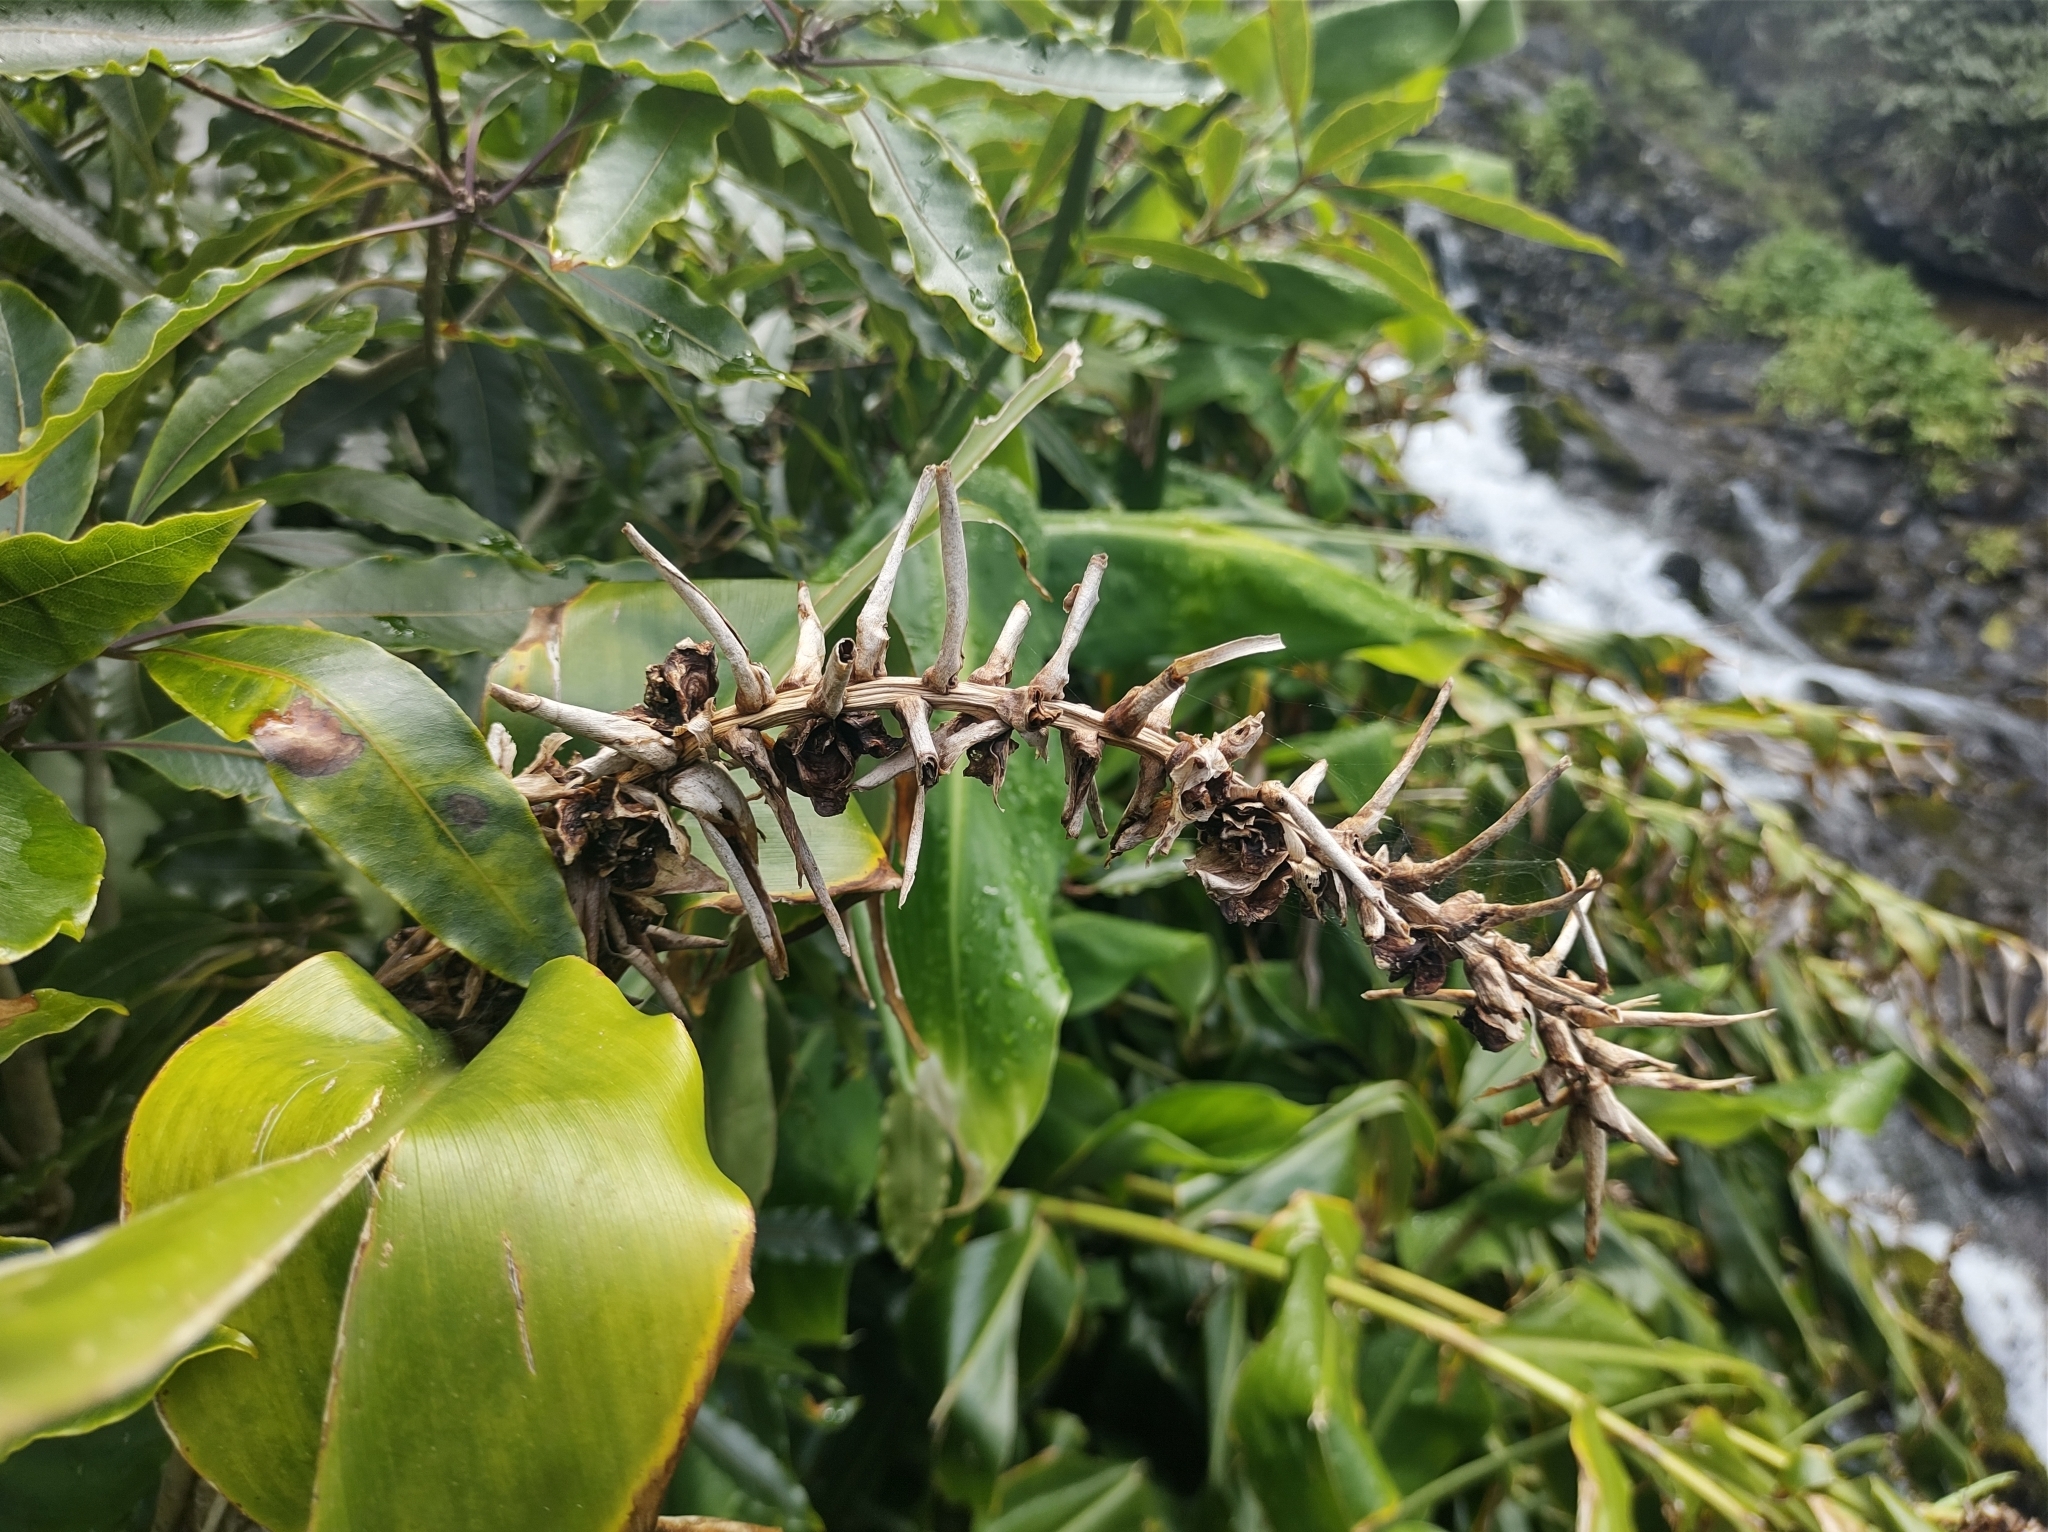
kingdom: Plantae
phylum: Tracheophyta
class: Liliopsida
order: Zingiberales
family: Zingiberaceae
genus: Hedychium
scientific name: Hedychium gardnerianum
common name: Himalayan ginger
